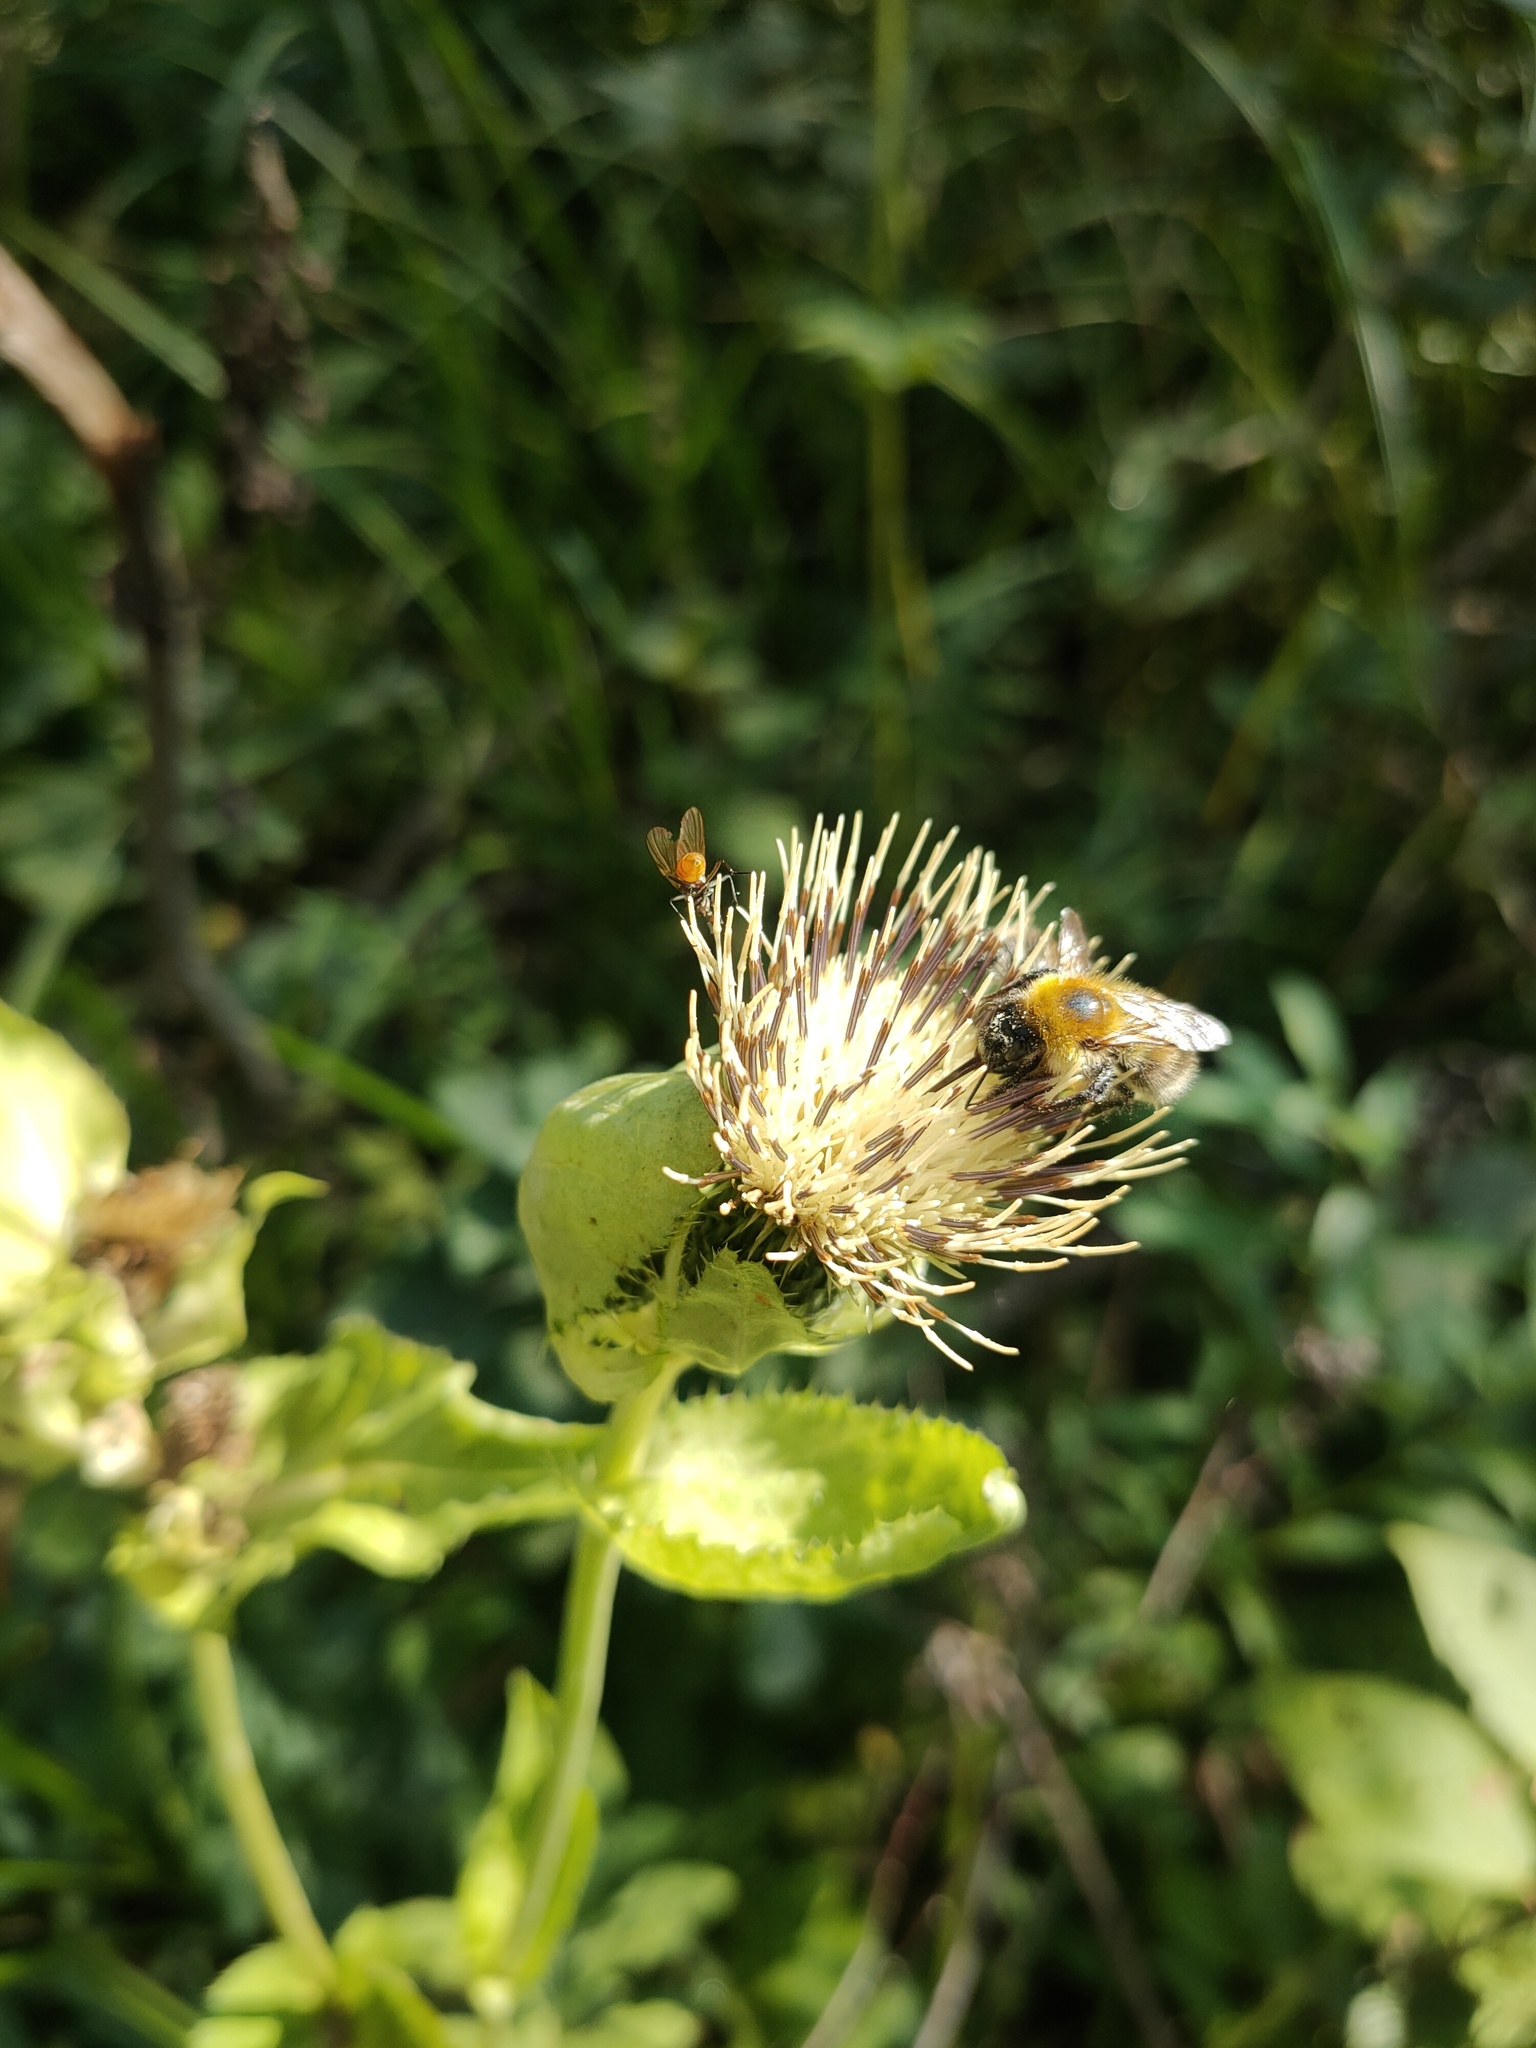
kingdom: Plantae
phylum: Tracheophyta
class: Magnoliopsida
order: Asterales
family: Asteraceae
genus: Cirsium
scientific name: Cirsium oleraceum
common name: Cabbage thistle
